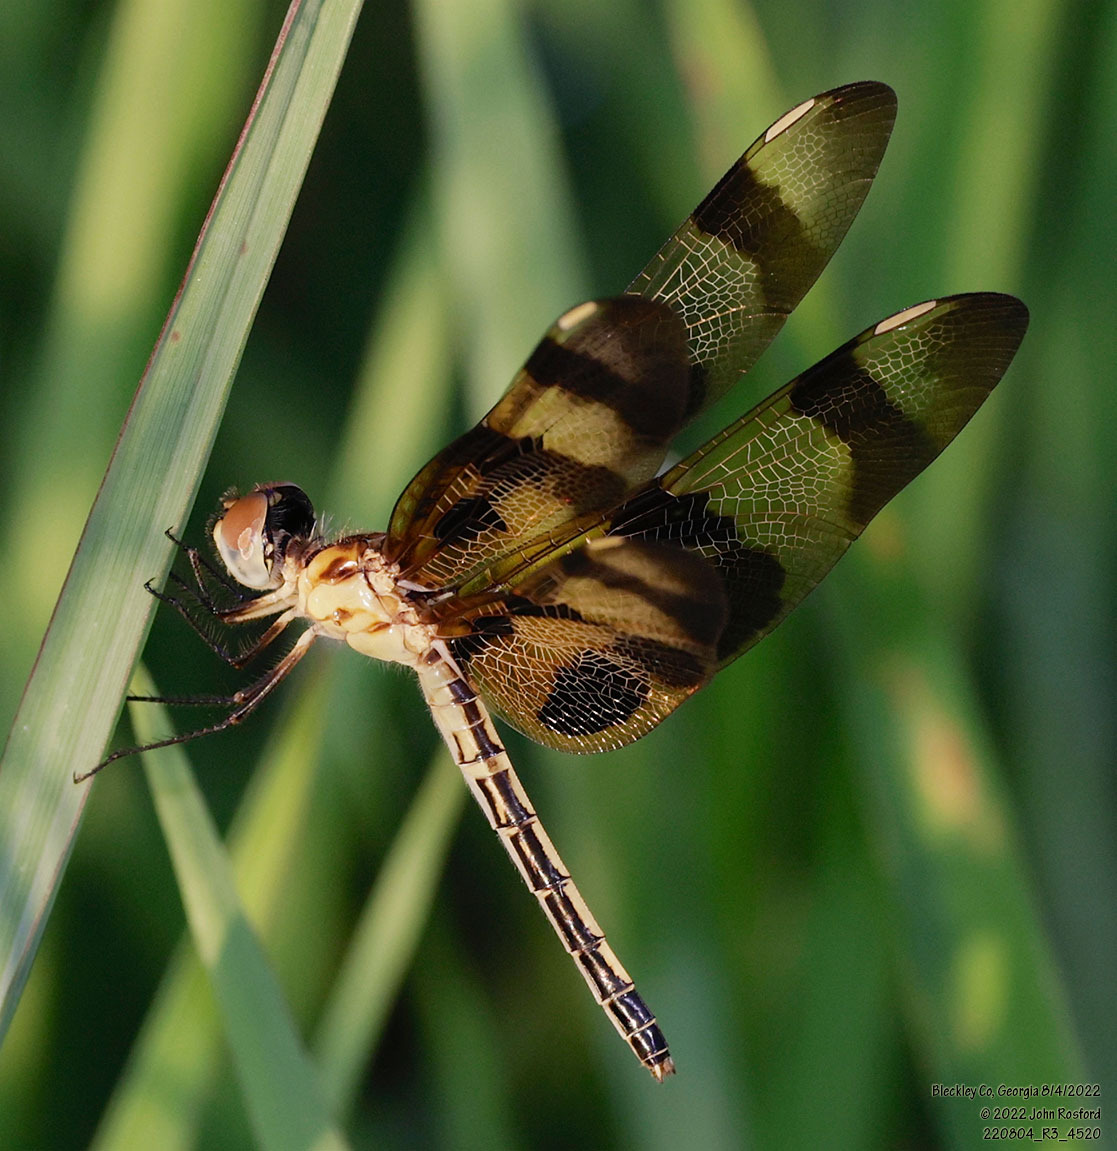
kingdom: Animalia
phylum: Arthropoda
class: Insecta
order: Odonata
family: Libellulidae
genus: Celithemis
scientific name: Celithemis eponina
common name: Halloween pennant
